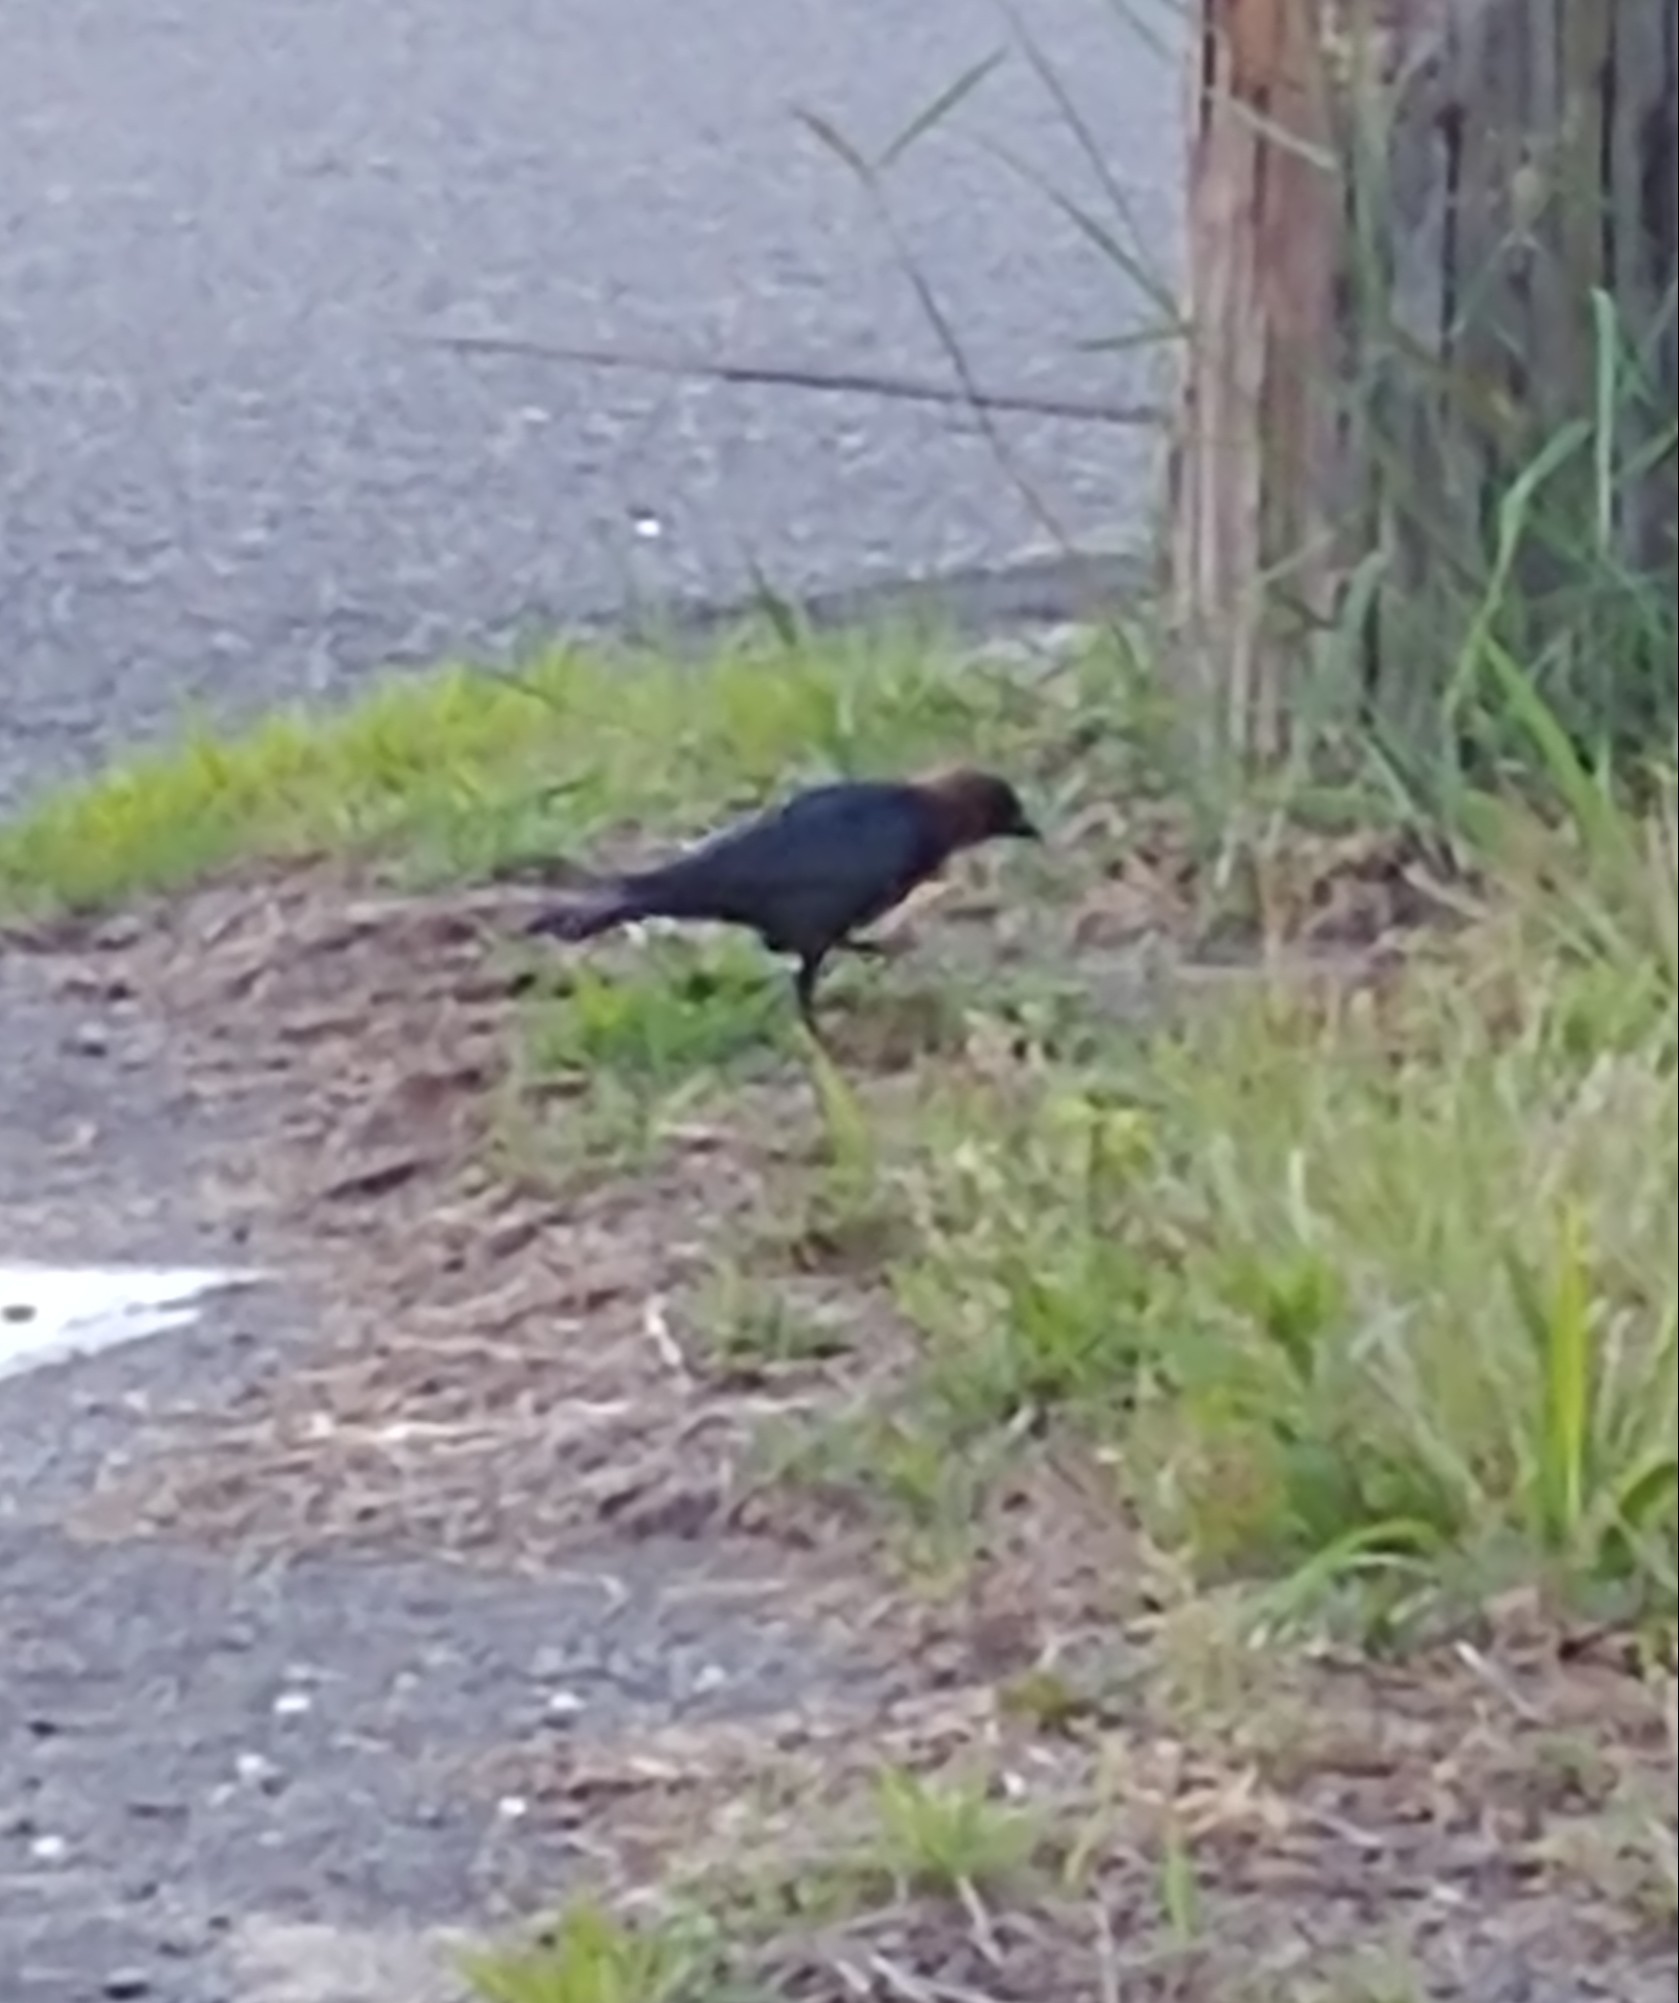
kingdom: Animalia
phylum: Chordata
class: Aves
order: Passeriformes
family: Icteridae
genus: Molothrus
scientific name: Molothrus ater
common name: Brown-headed cowbird
